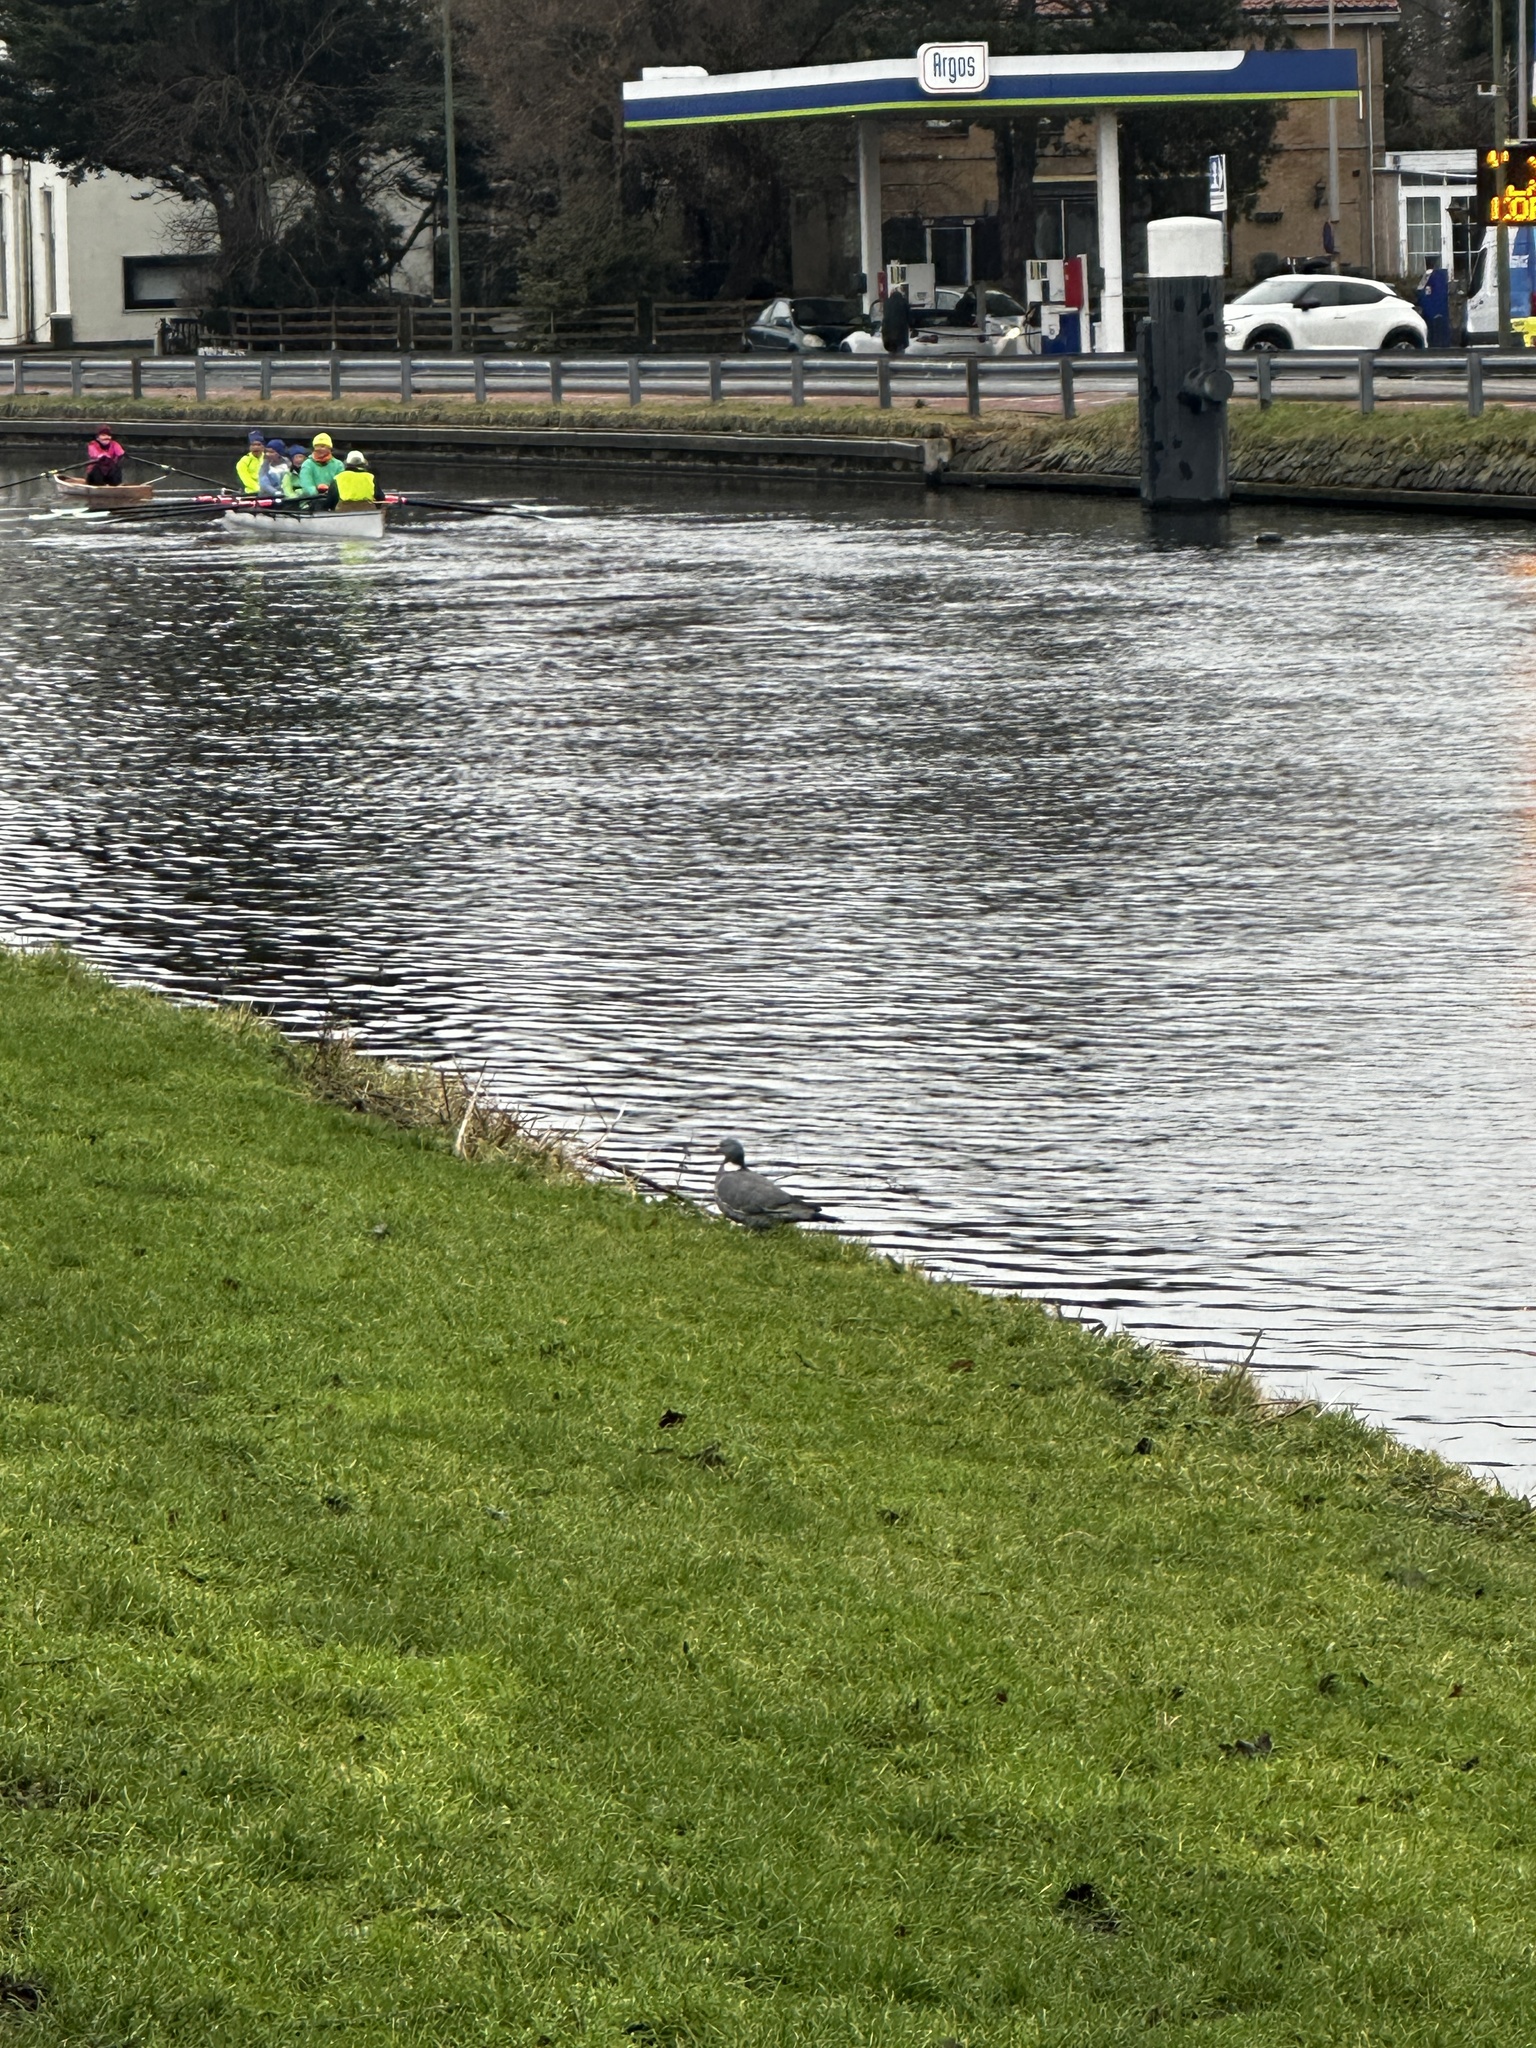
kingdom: Animalia
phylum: Chordata
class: Aves
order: Columbiformes
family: Columbidae
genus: Columba
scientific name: Columba palumbus
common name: Common wood pigeon
